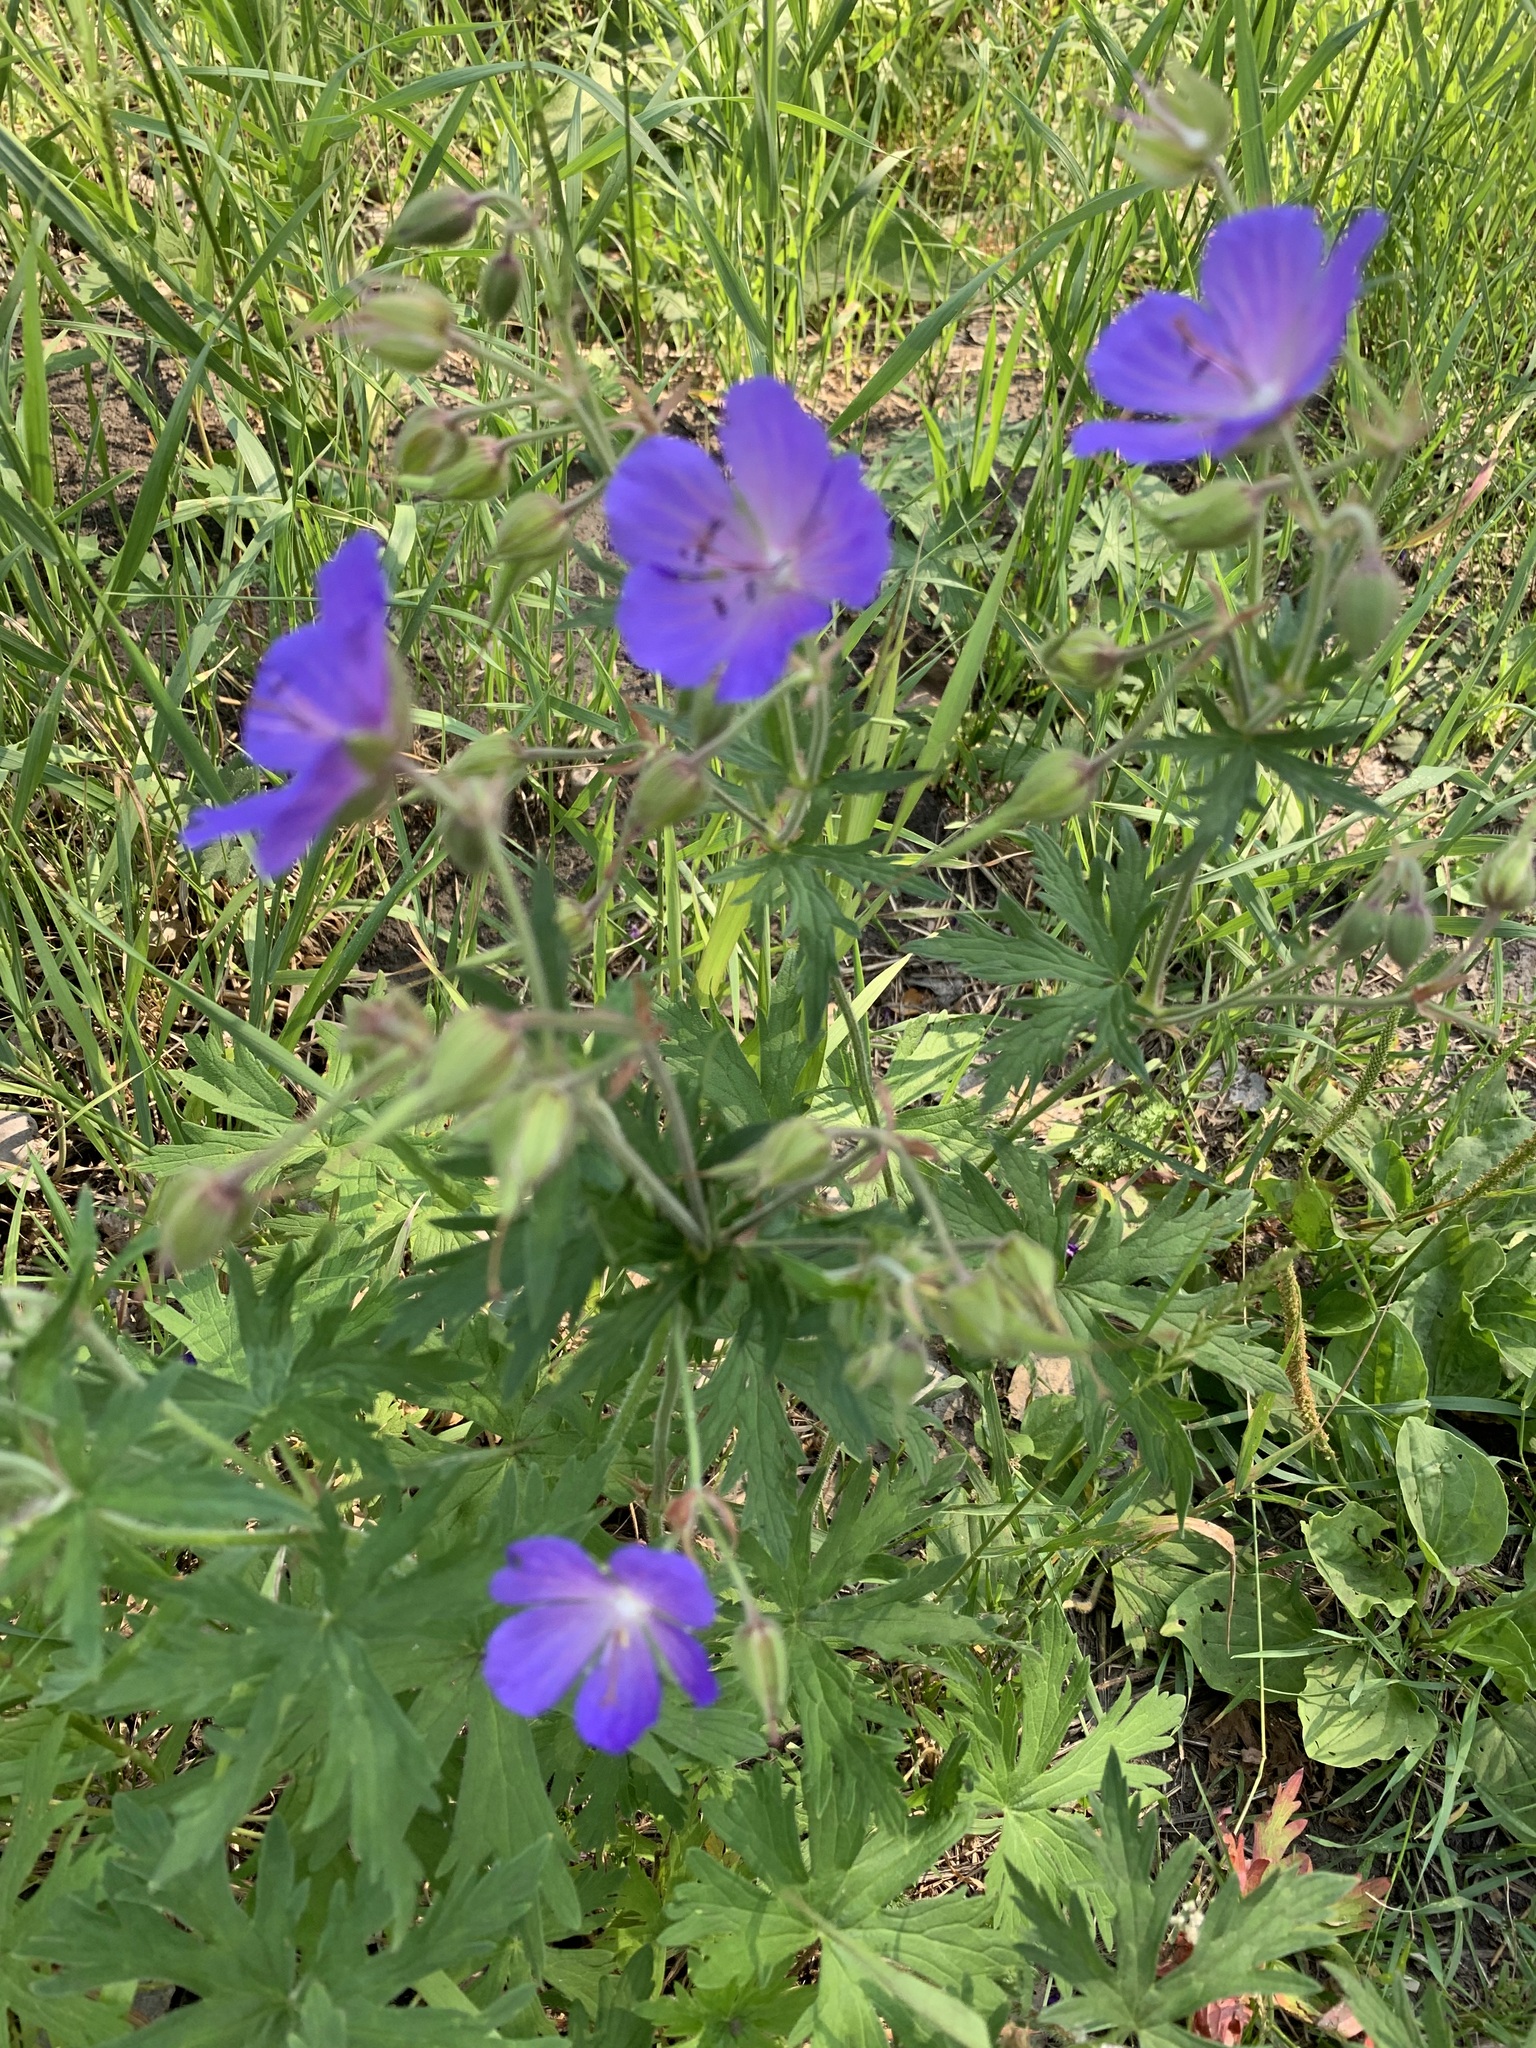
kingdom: Plantae
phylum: Tracheophyta
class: Magnoliopsida
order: Geraniales
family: Geraniaceae
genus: Geranium
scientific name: Geranium pratense
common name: Meadow crane's-bill
